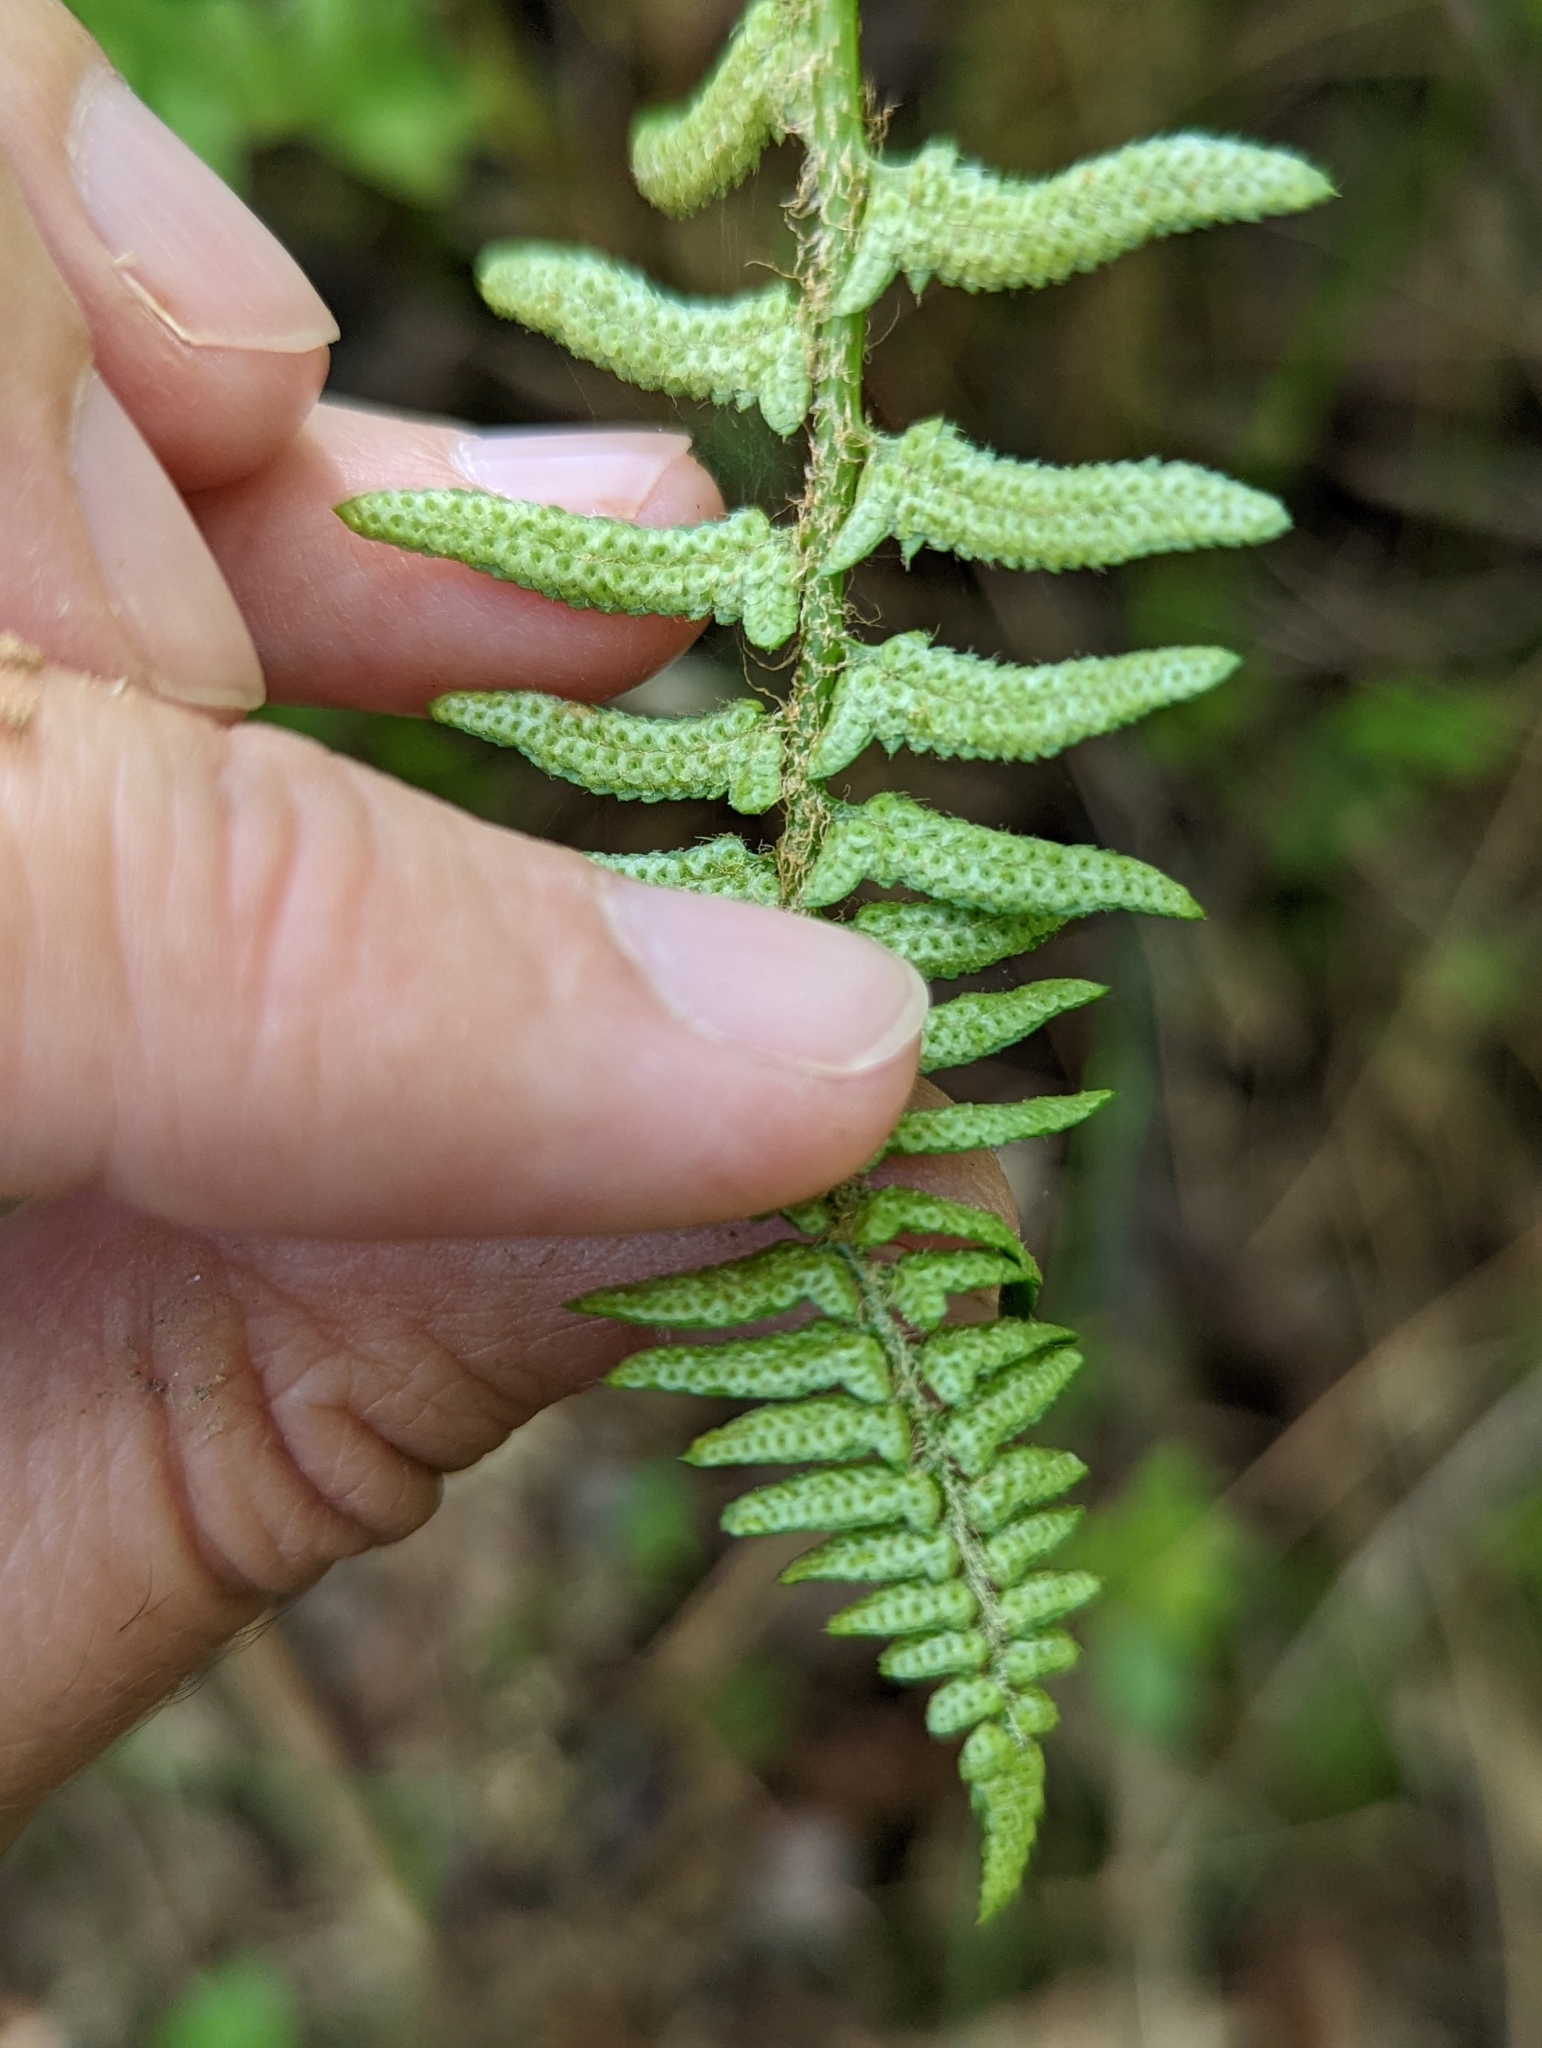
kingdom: Plantae
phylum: Tracheophyta
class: Polypodiopsida
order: Polypodiales
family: Dryopteridaceae
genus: Polystichum
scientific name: Polystichum acrostichoides
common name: Christmas fern
